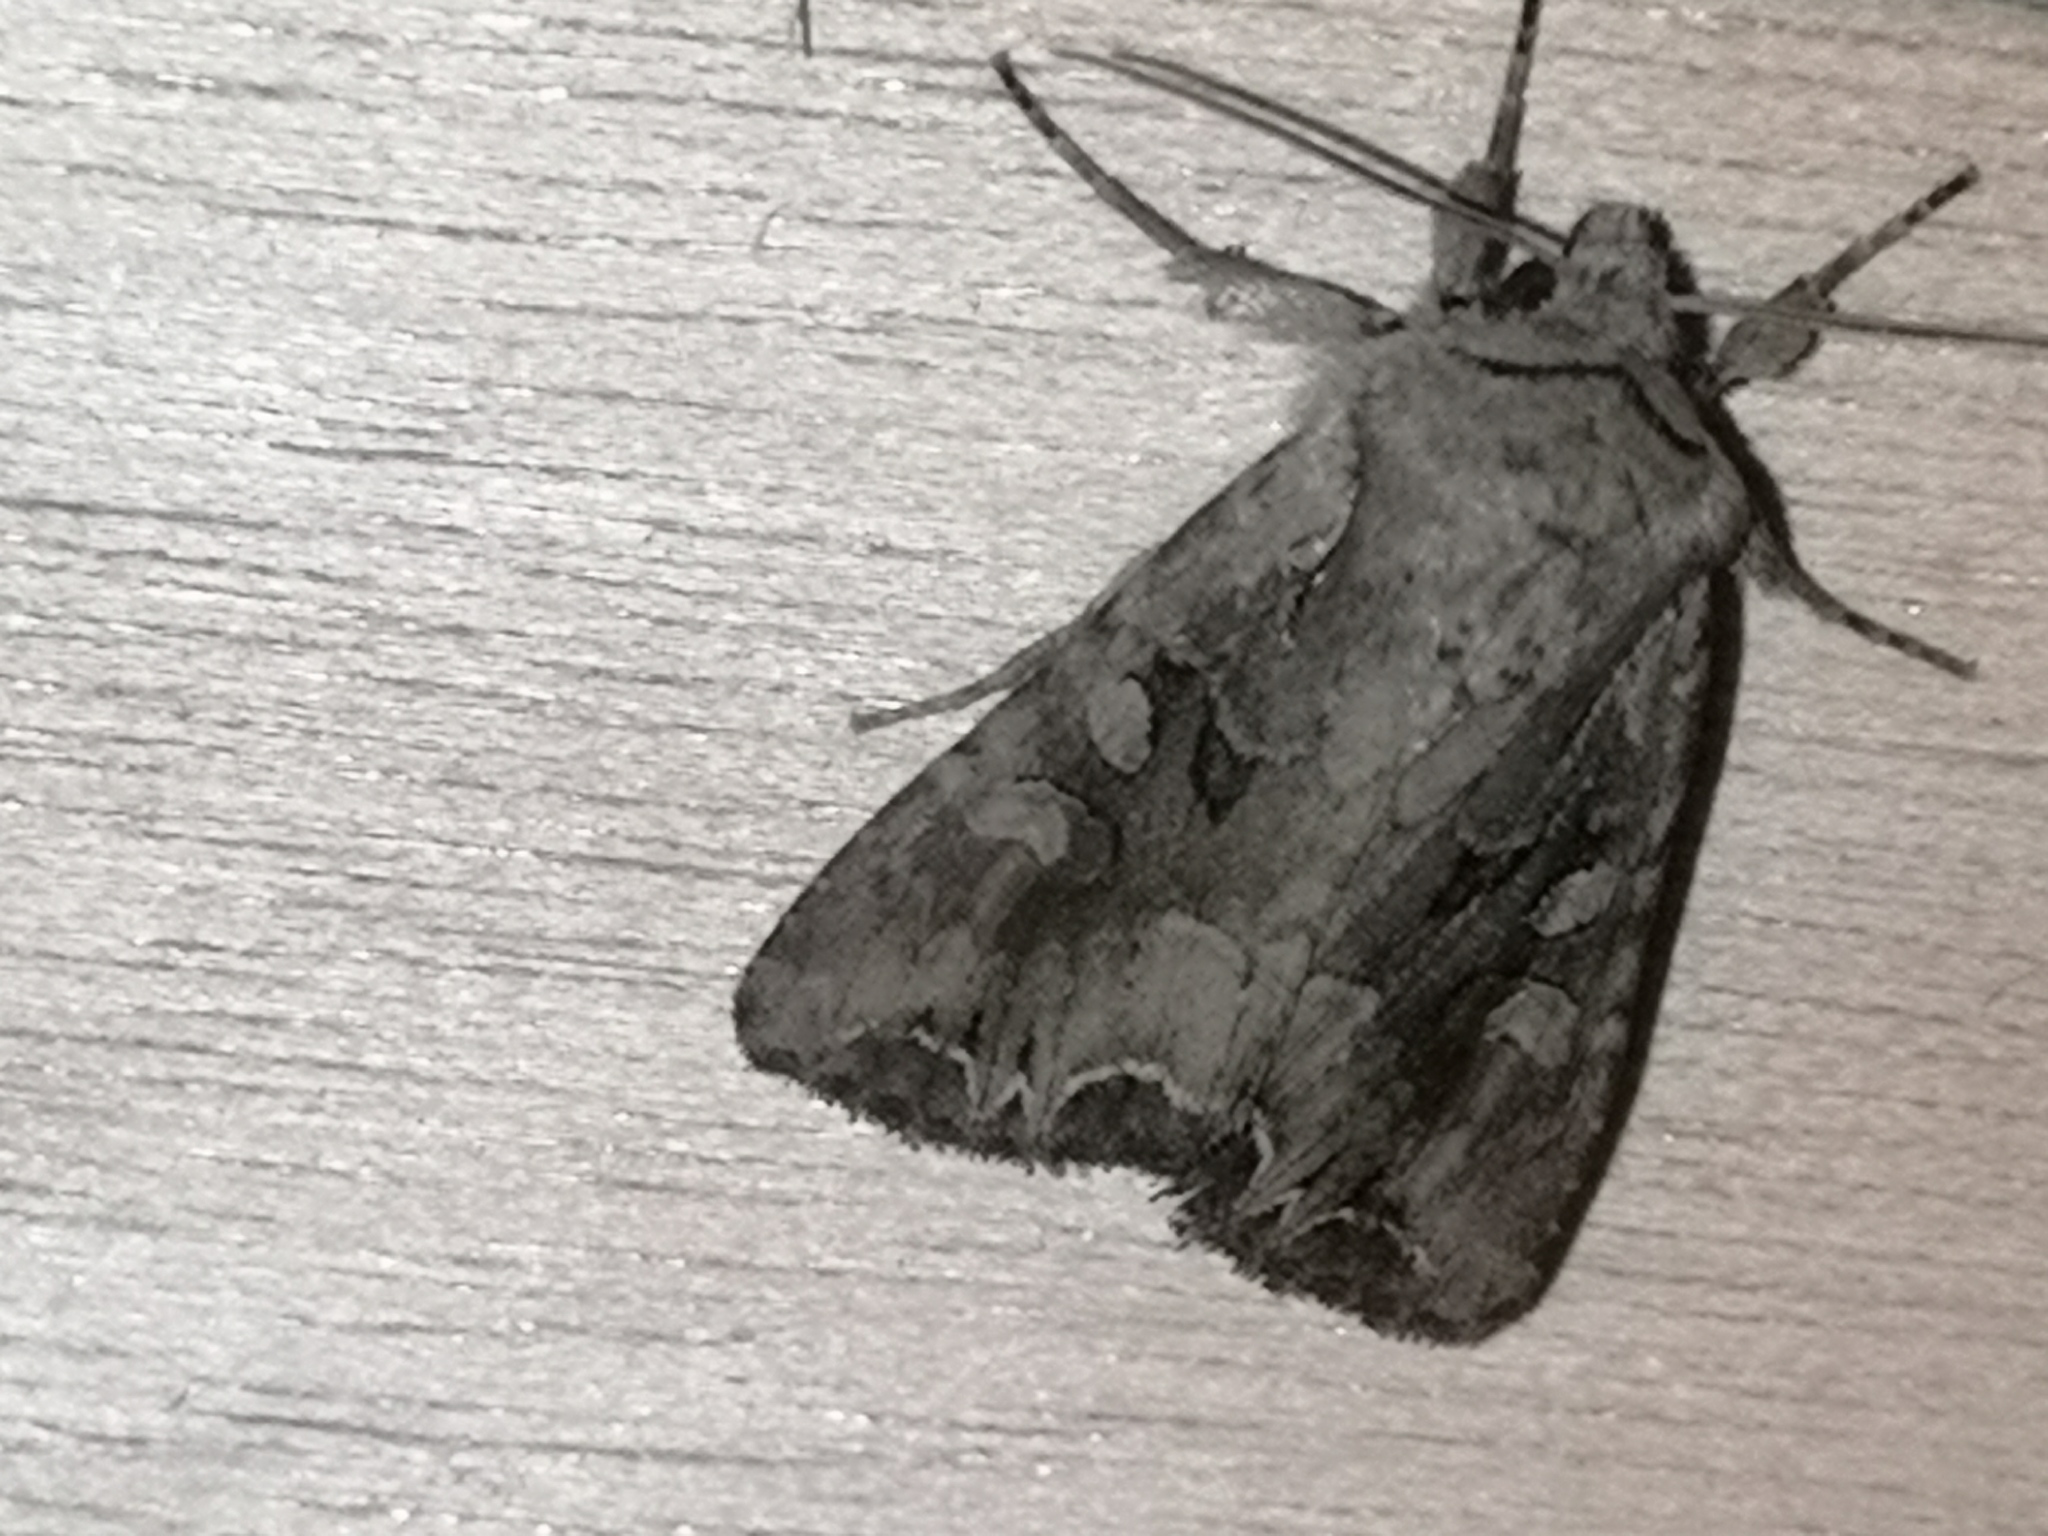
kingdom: Animalia
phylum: Arthropoda
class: Insecta
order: Lepidoptera
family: Noctuidae
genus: Lacanobia
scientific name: Lacanobia suasa
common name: Dog's tooth
